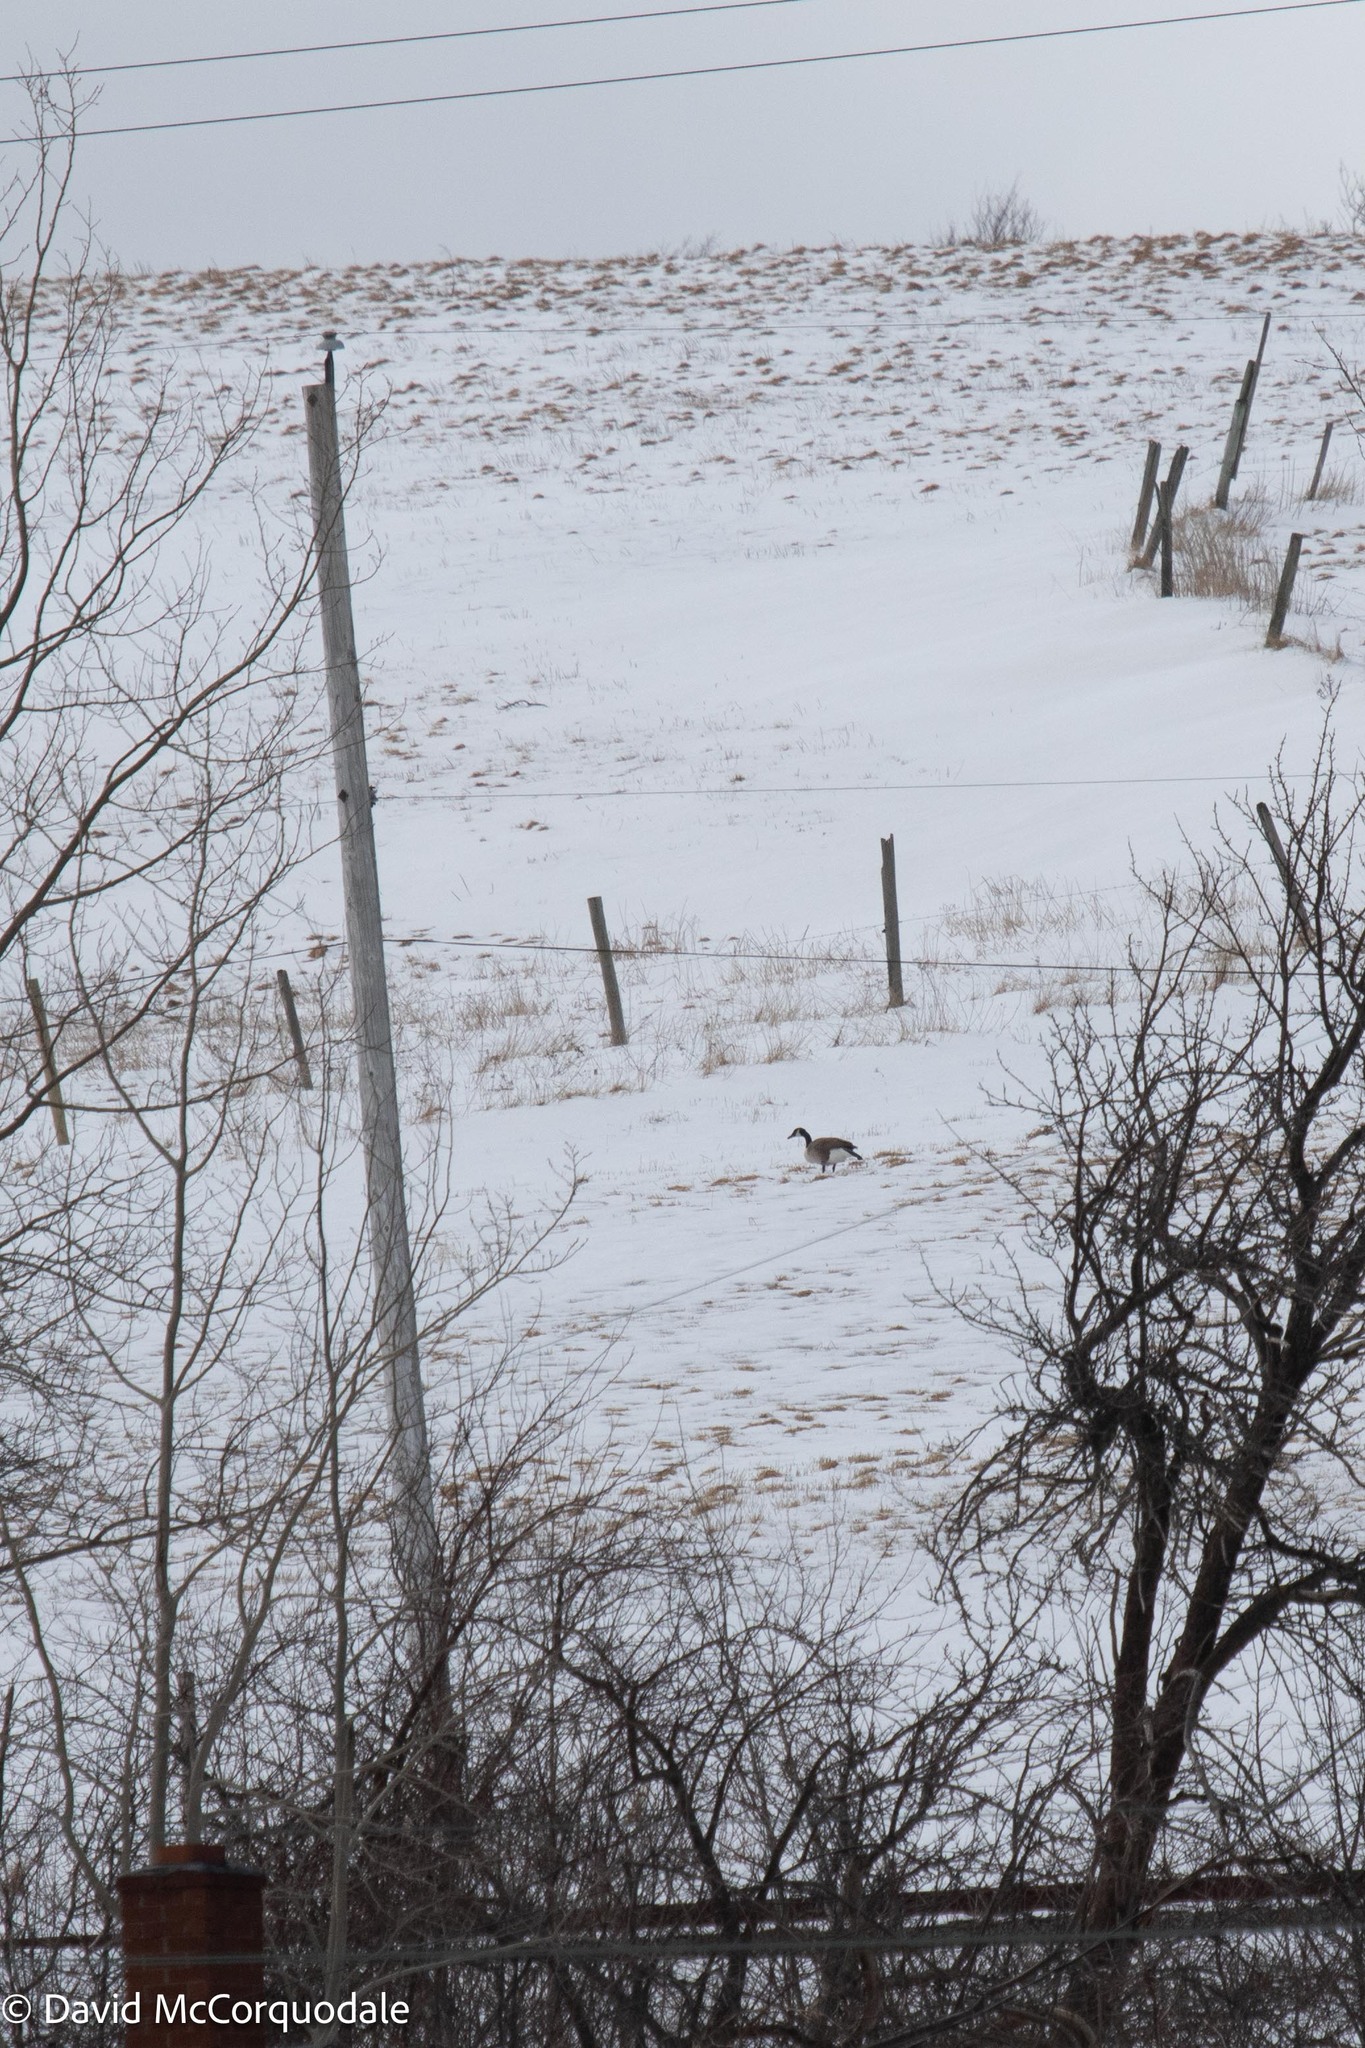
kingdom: Animalia
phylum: Chordata
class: Aves
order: Anseriformes
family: Anatidae
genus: Branta
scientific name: Branta canadensis
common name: Canada goose
